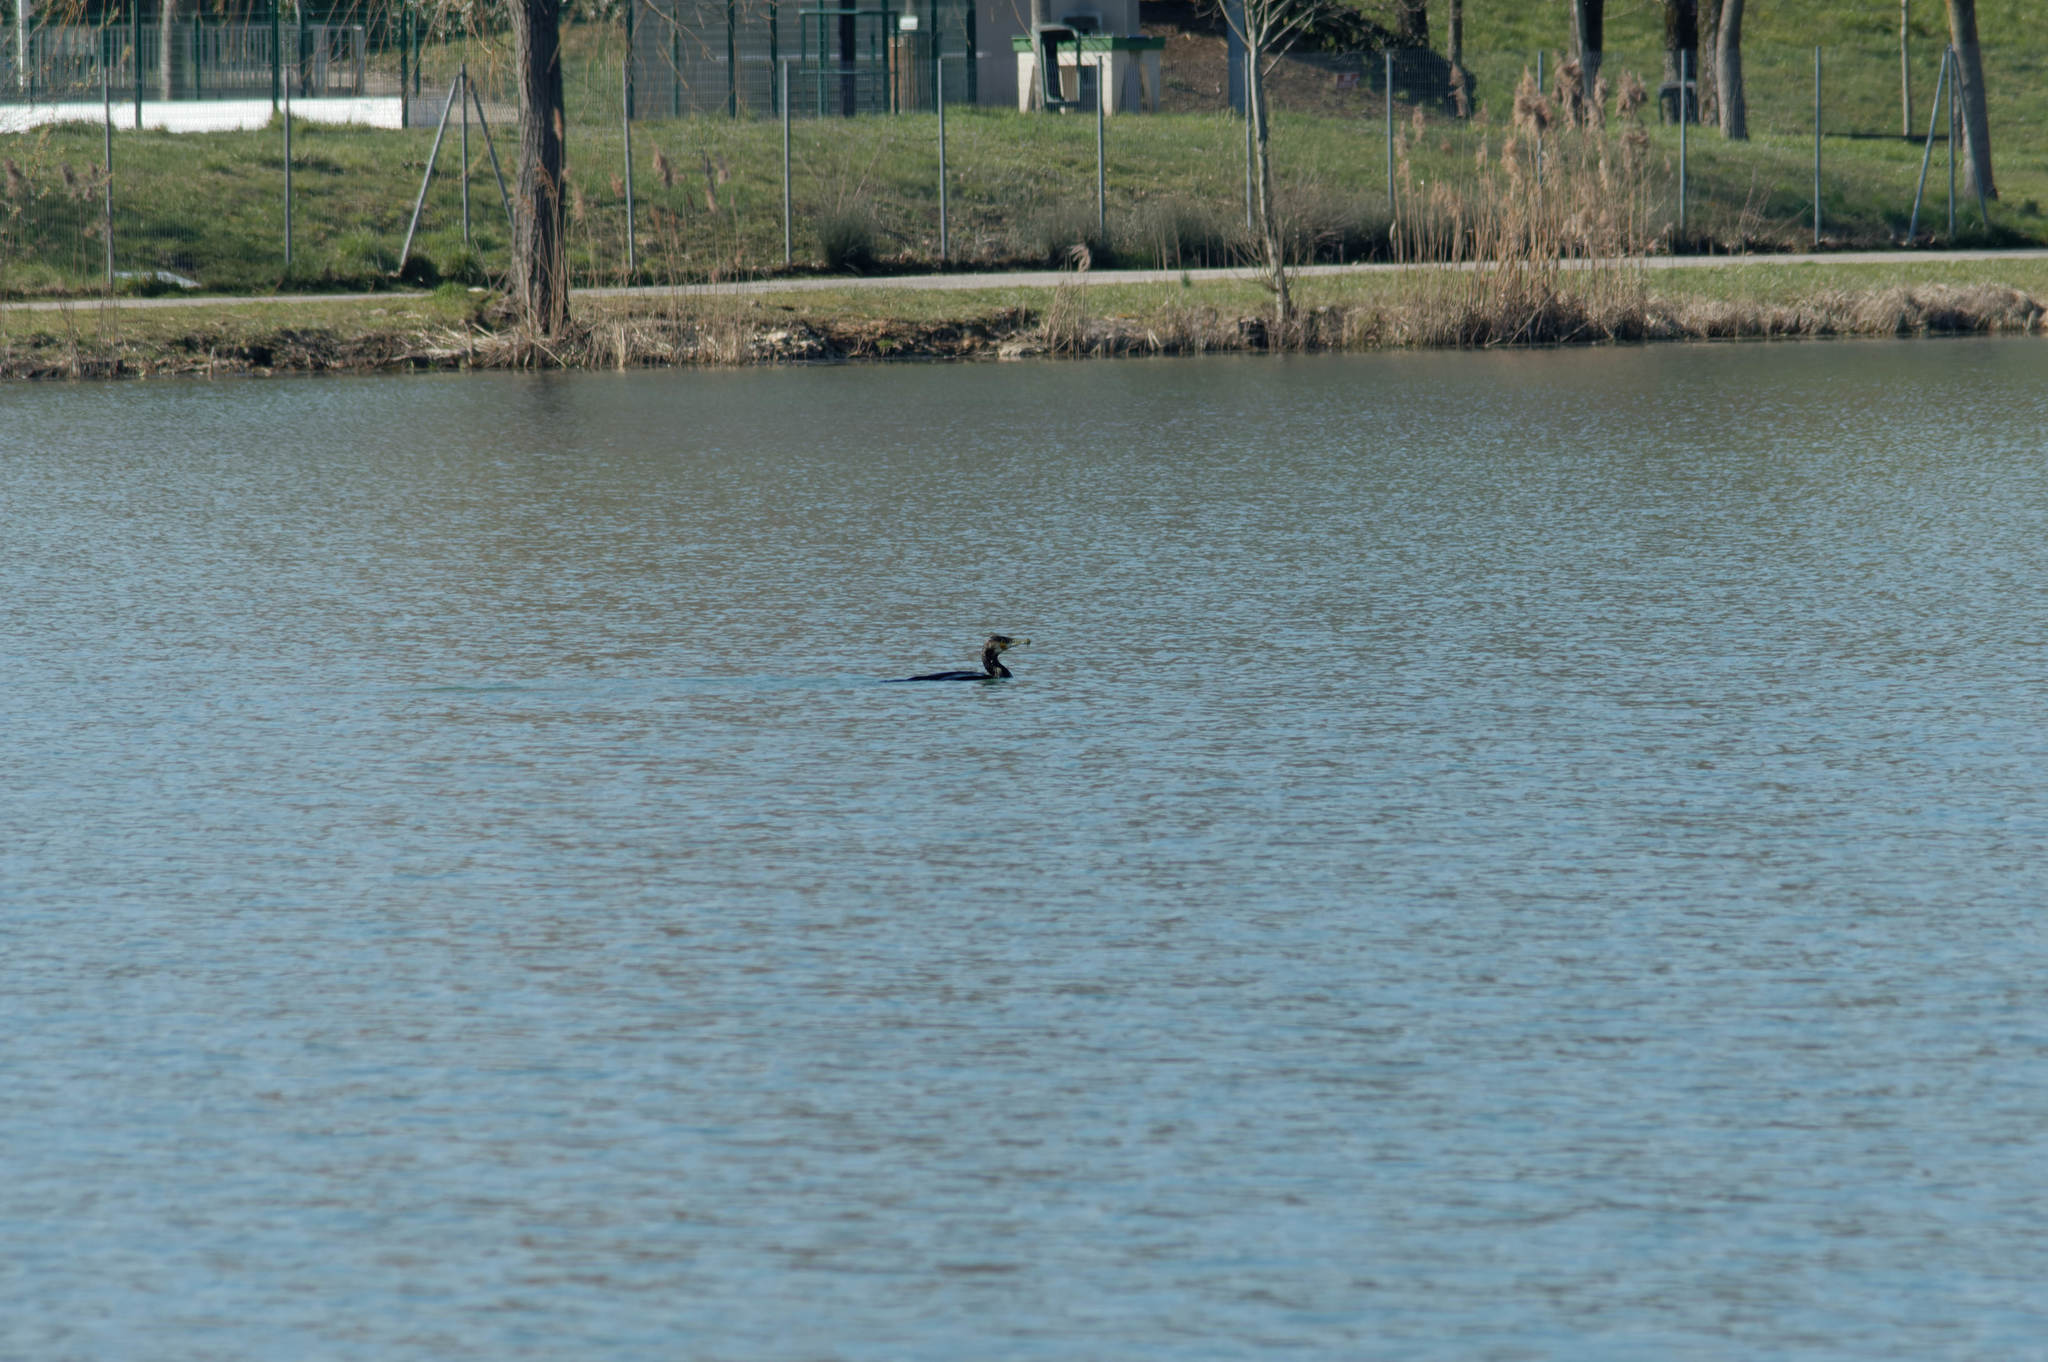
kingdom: Animalia
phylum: Chordata
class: Aves
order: Suliformes
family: Phalacrocoracidae
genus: Phalacrocorax
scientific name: Phalacrocorax carbo
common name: Great cormorant
